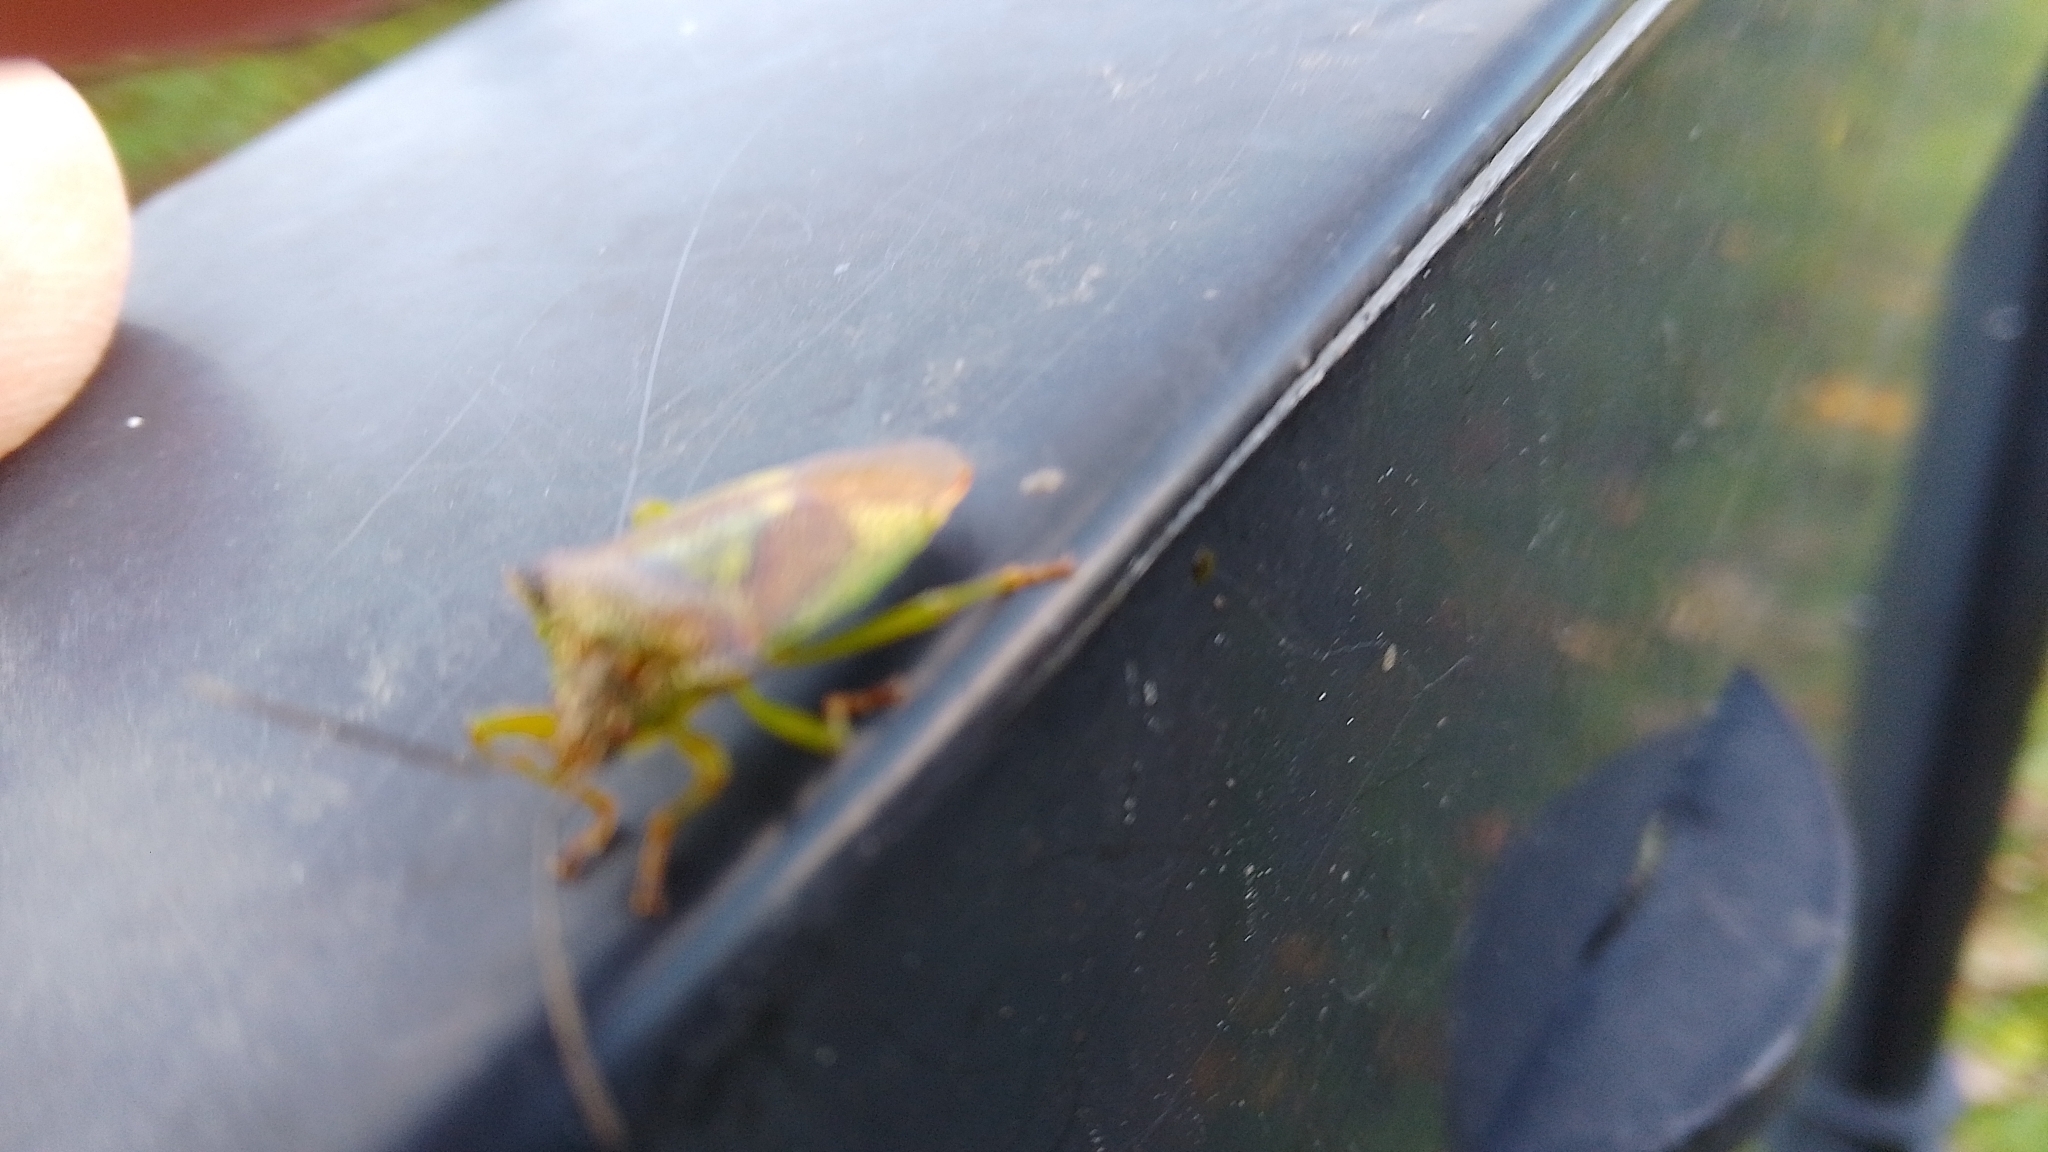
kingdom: Animalia
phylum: Arthropoda
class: Insecta
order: Hemiptera
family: Acanthosomatidae
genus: Acanthosoma
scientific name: Acanthosoma haemorrhoidale
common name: Hawthorn shieldbug
